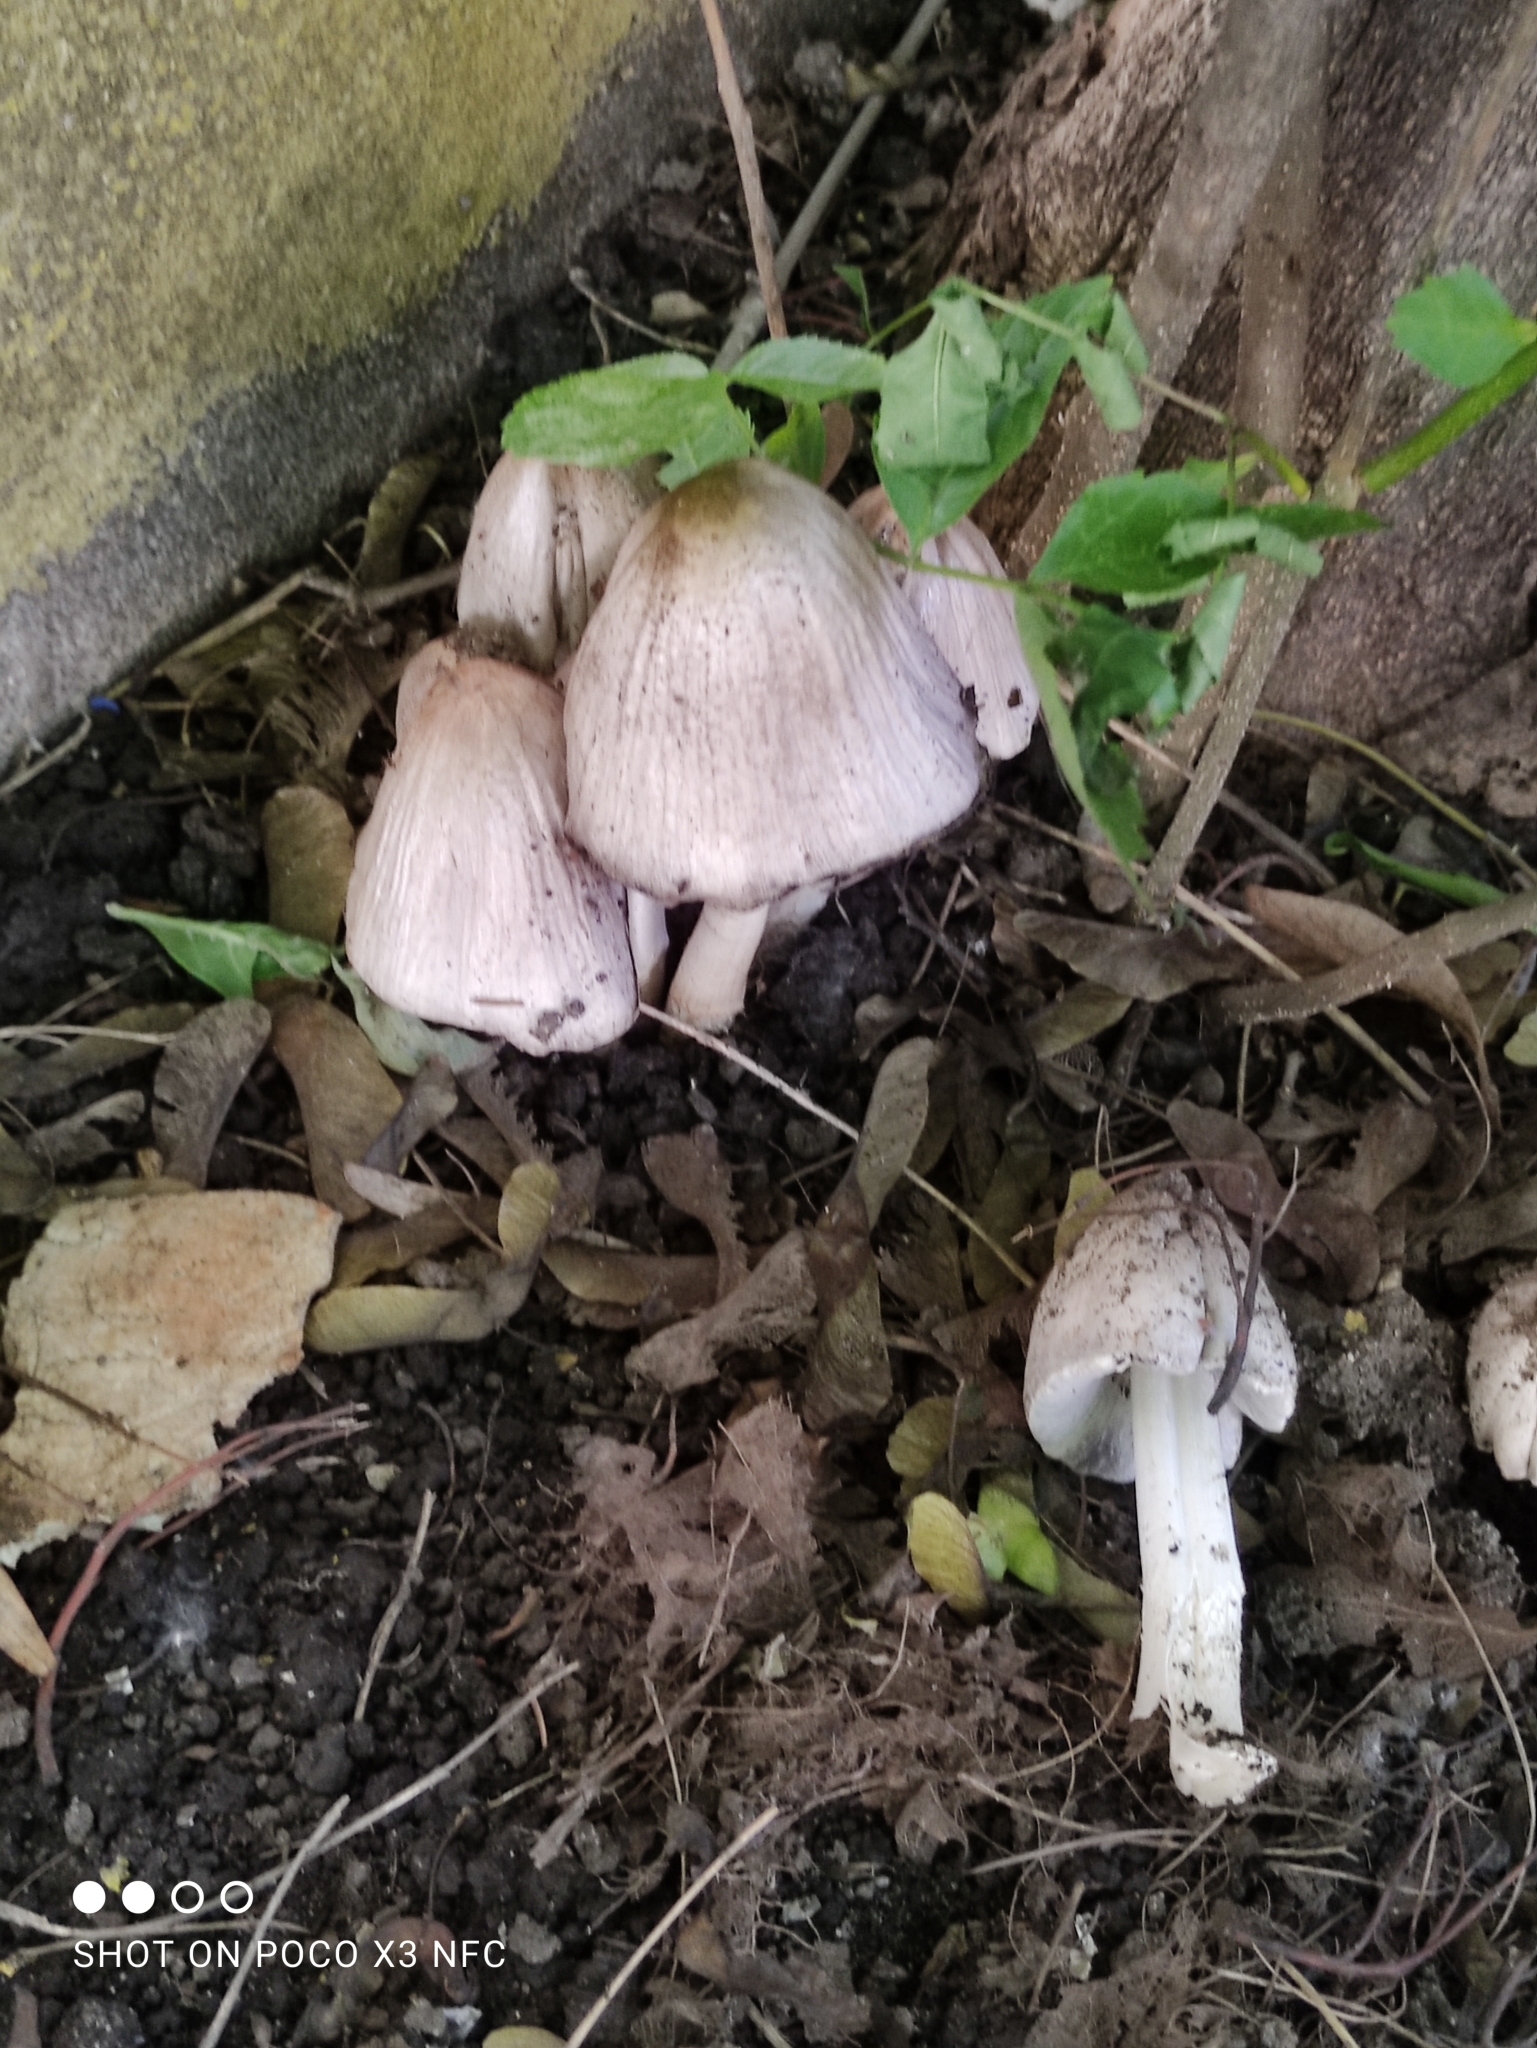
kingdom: Fungi
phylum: Basidiomycota
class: Agaricomycetes
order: Agaricales
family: Psathyrellaceae
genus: Coprinopsis
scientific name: Coprinopsis atramentaria
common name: Common ink-cap
